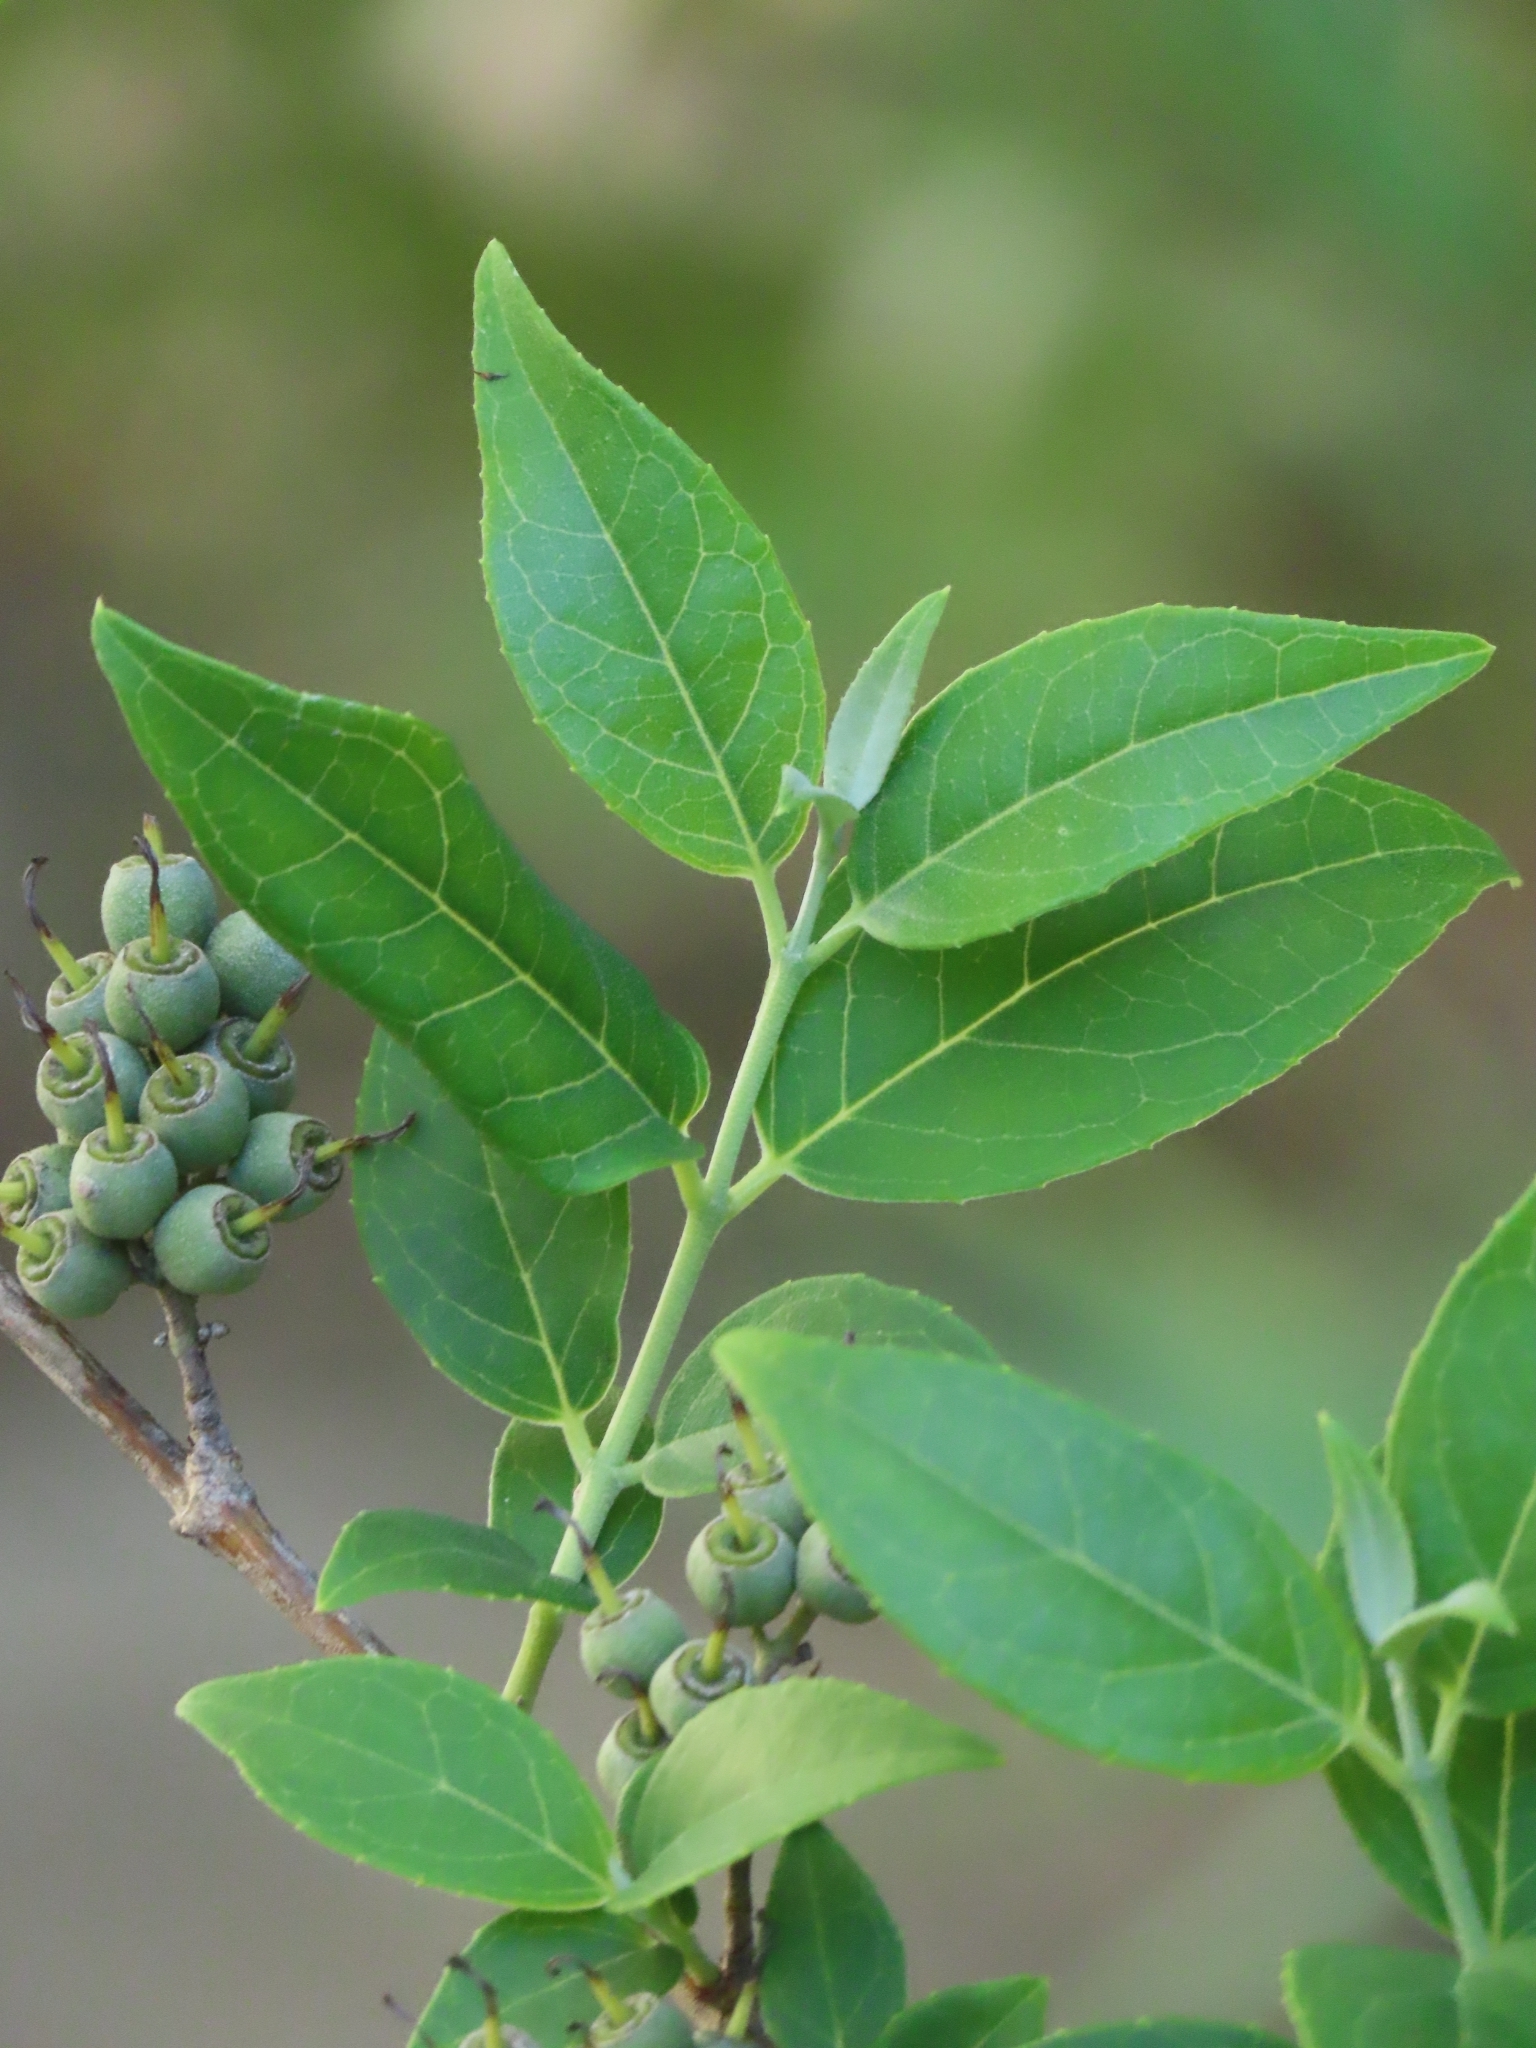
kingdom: Plantae
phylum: Tracheophyta
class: Magnoliopsida
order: Cornales
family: Hydrangeaceae
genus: Deutzia
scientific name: Deutzia pulchra
